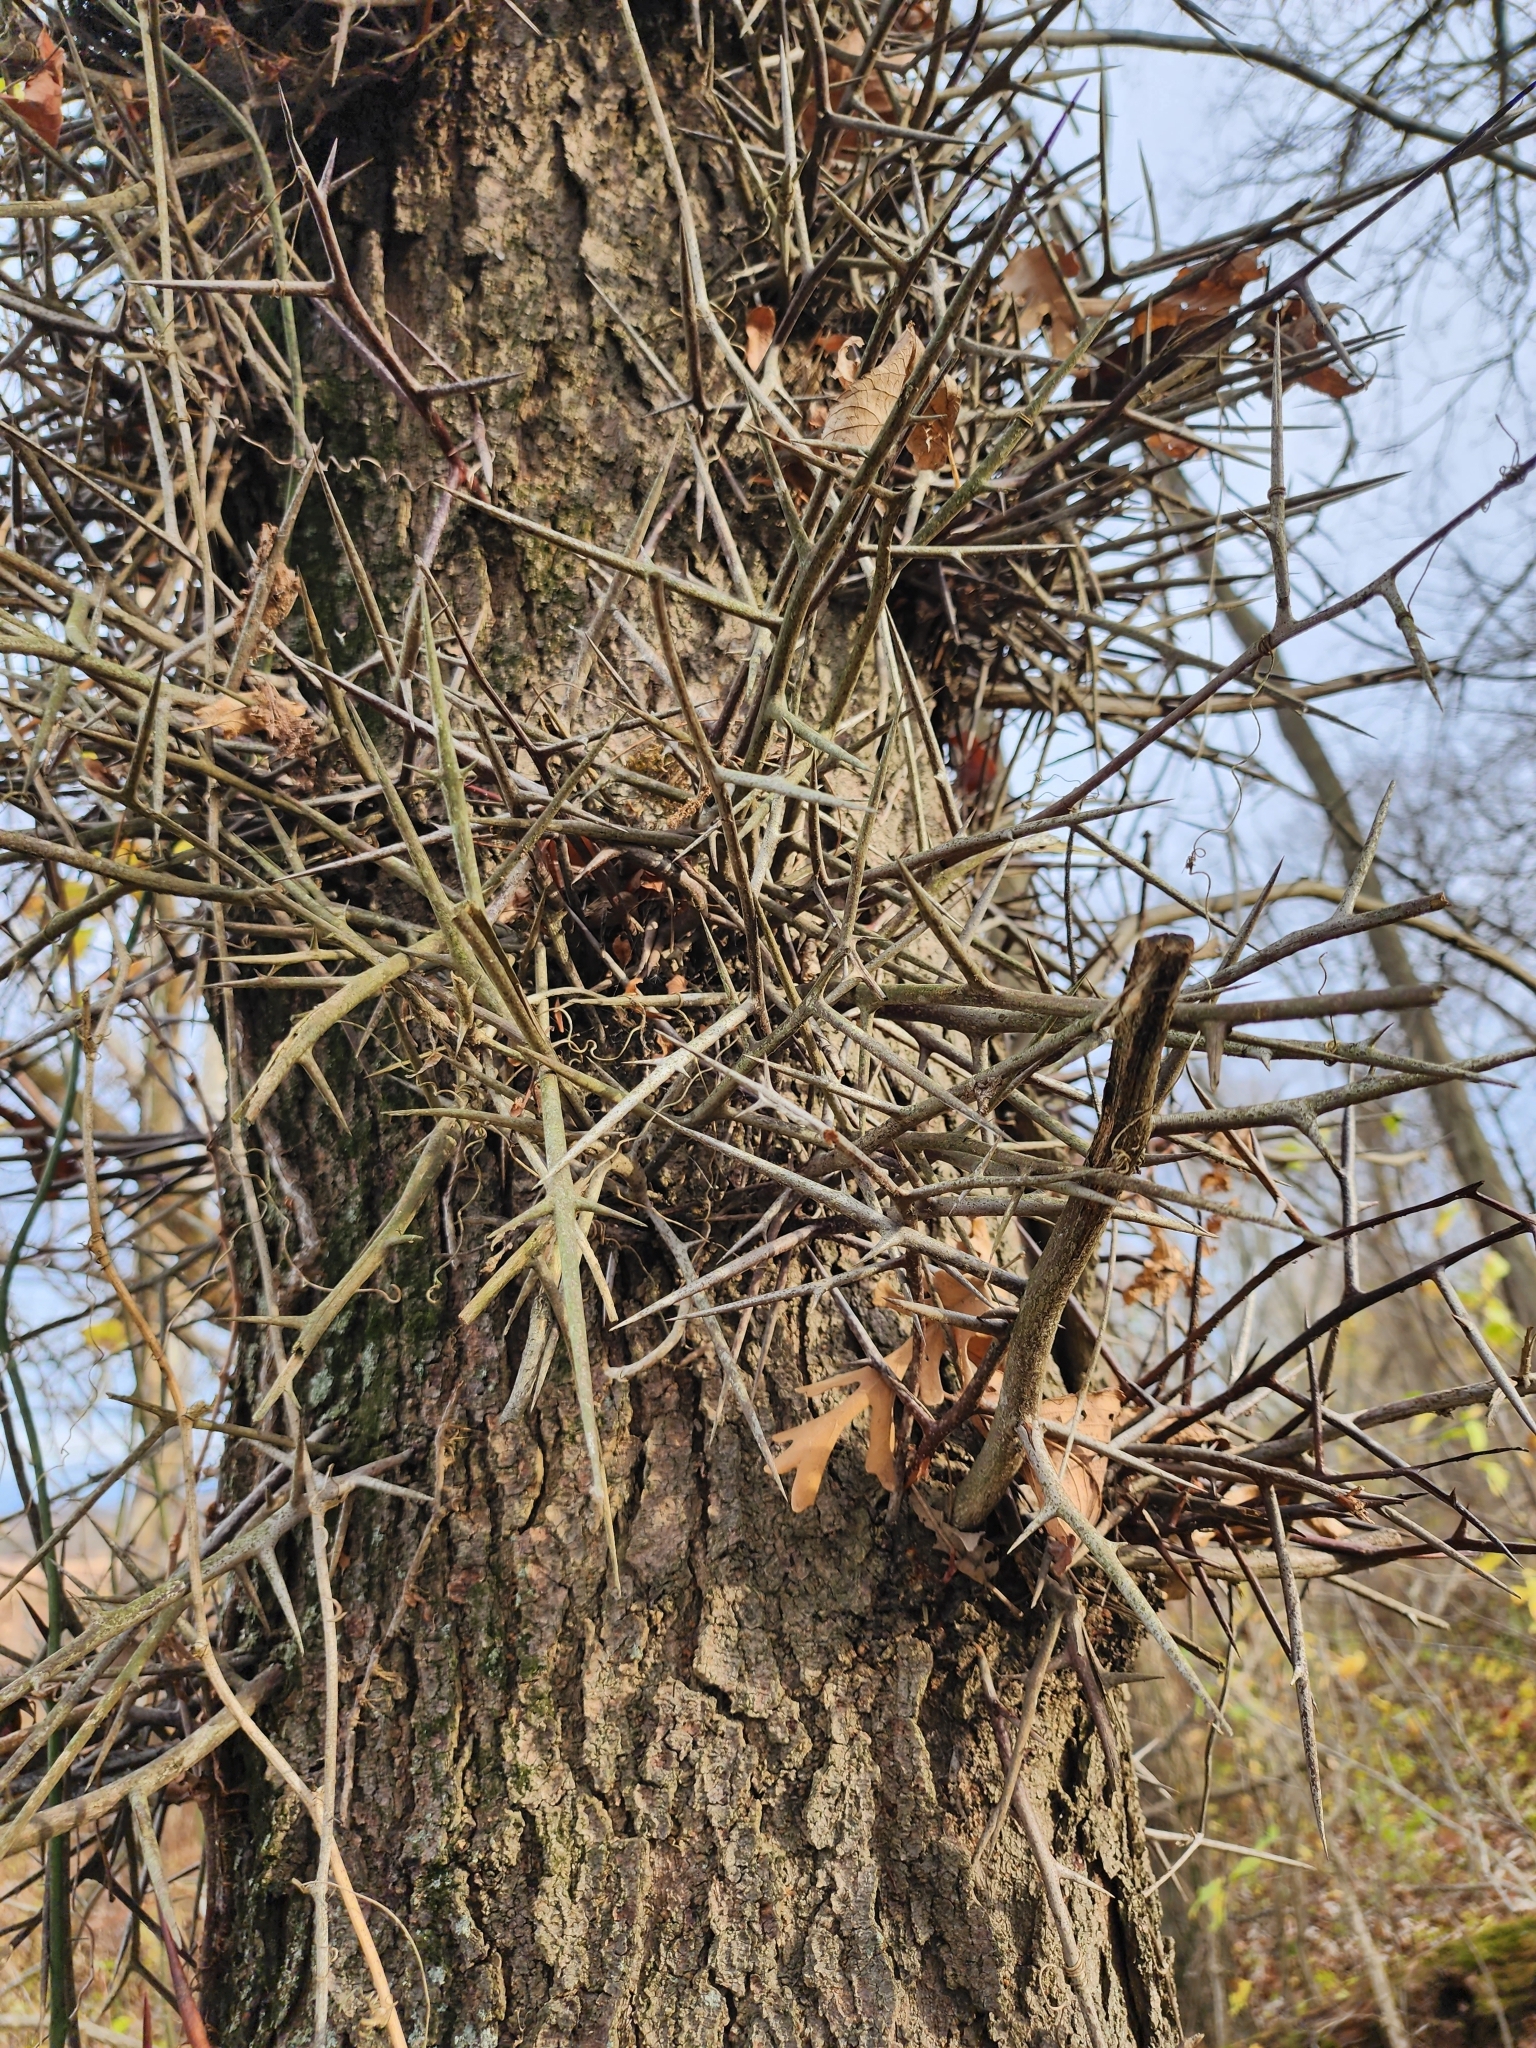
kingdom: Plantae
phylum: Tracheophyta
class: Magnoliopsida
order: Fabales
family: Fabaceae
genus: Gleditsia
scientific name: Gleditsia triacanthos
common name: Common honeylocust
